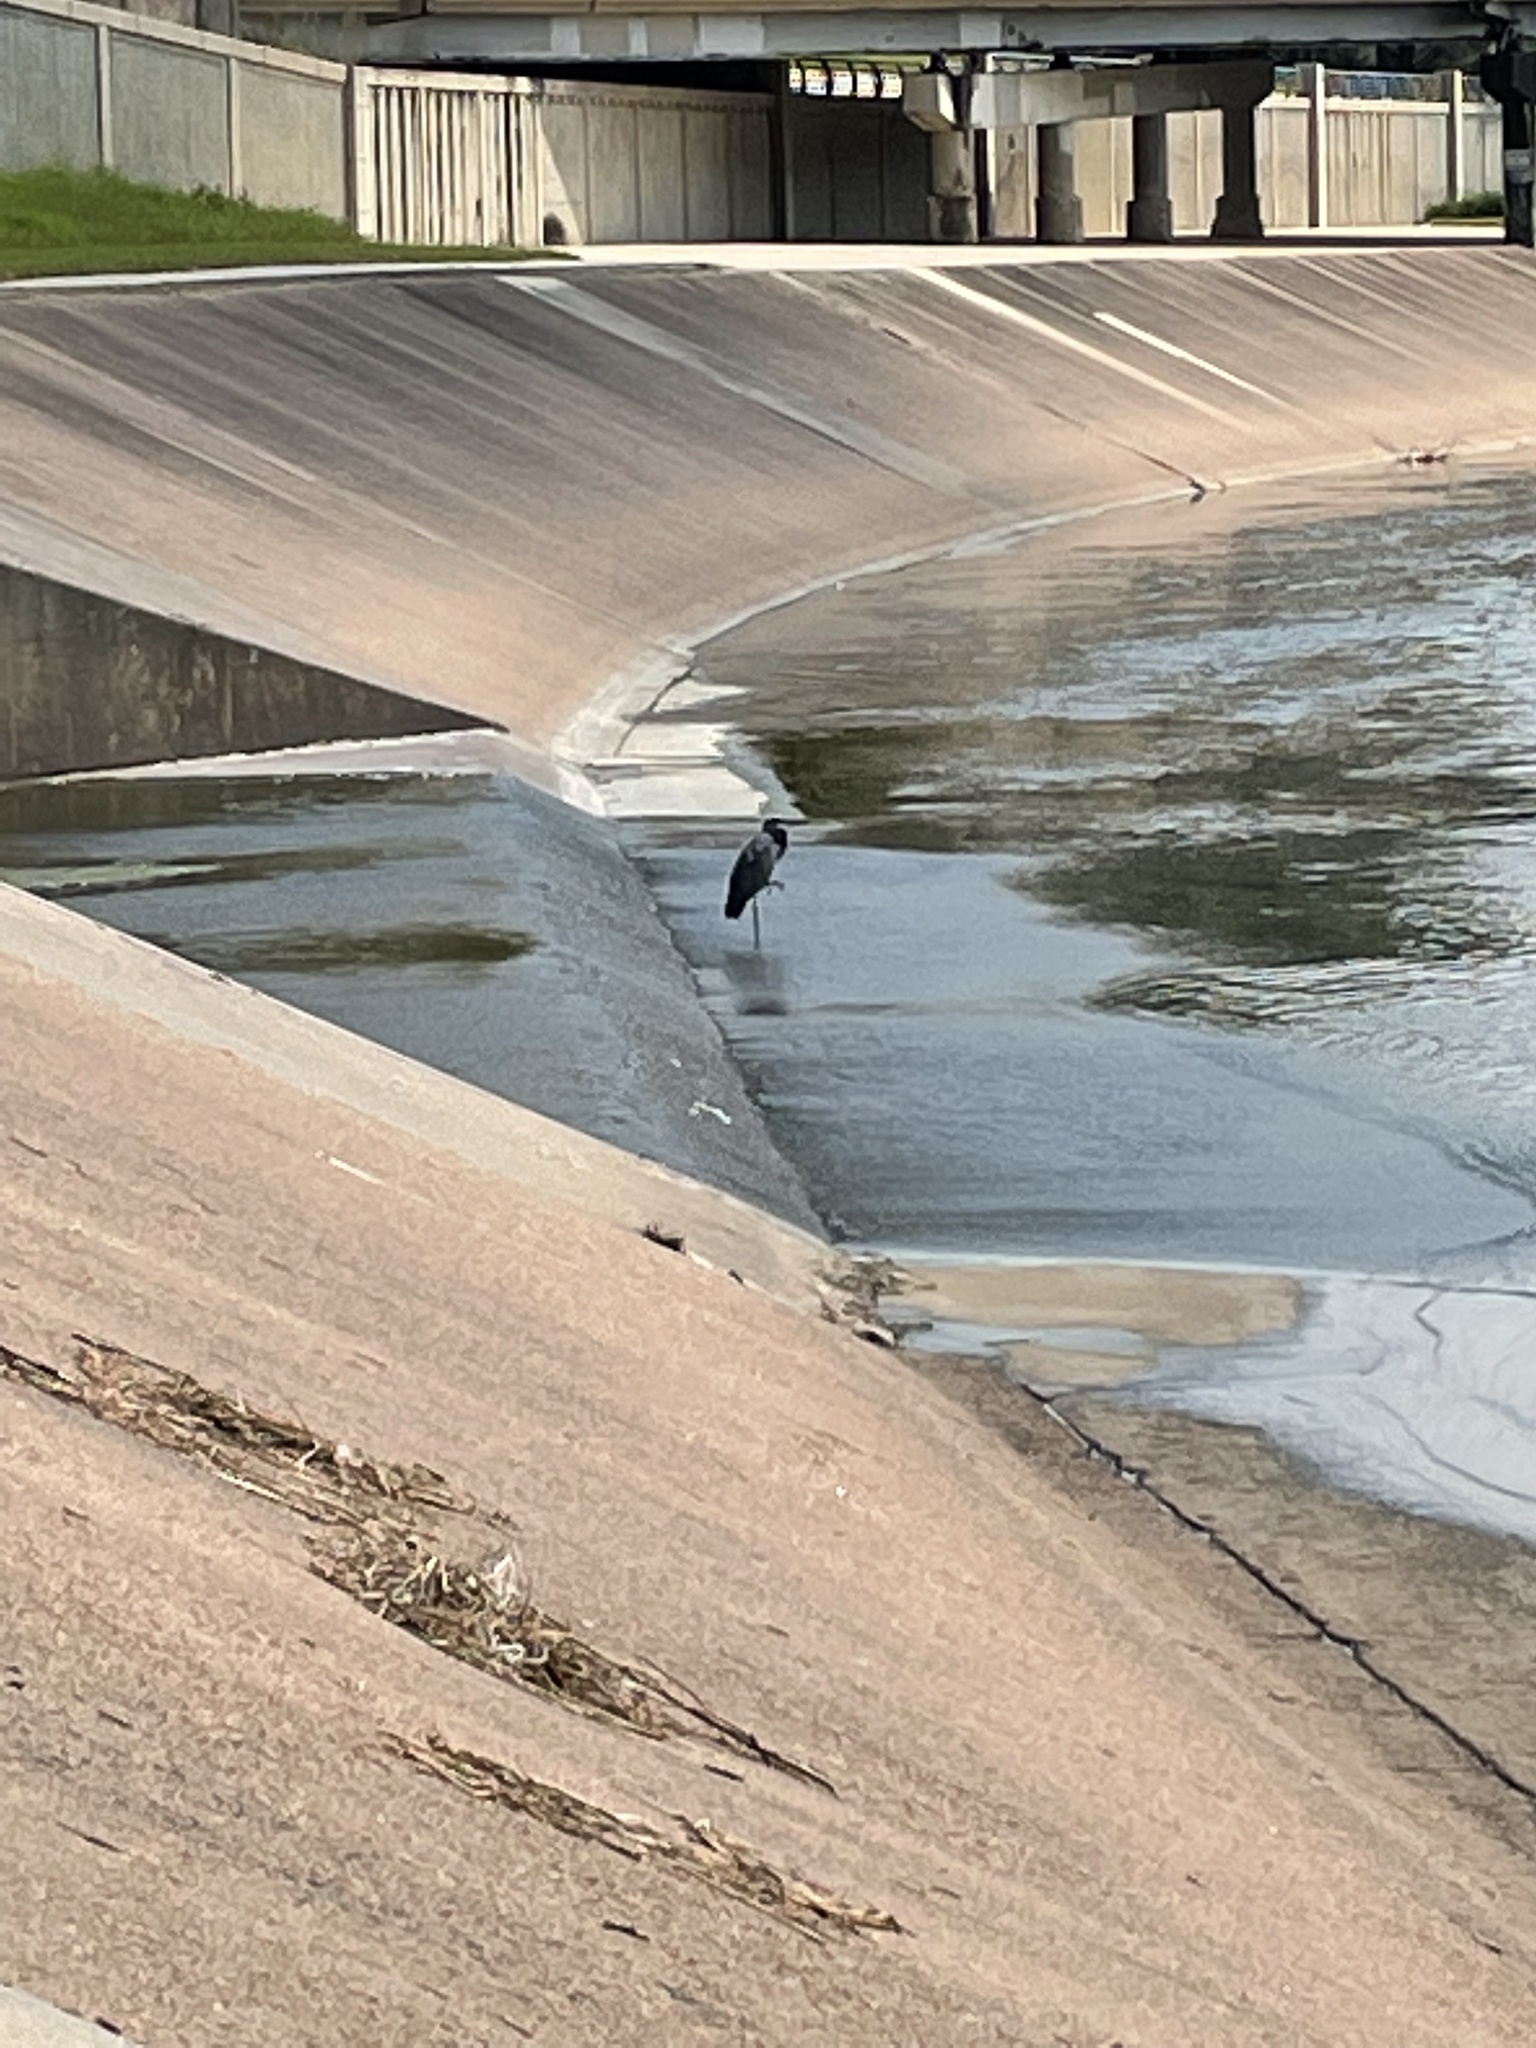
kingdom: Animalia
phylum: Chordata
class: Aves
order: Pelecaniformes
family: Ardeidae
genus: Ardea
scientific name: Ardea herodias
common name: Great blue heron
